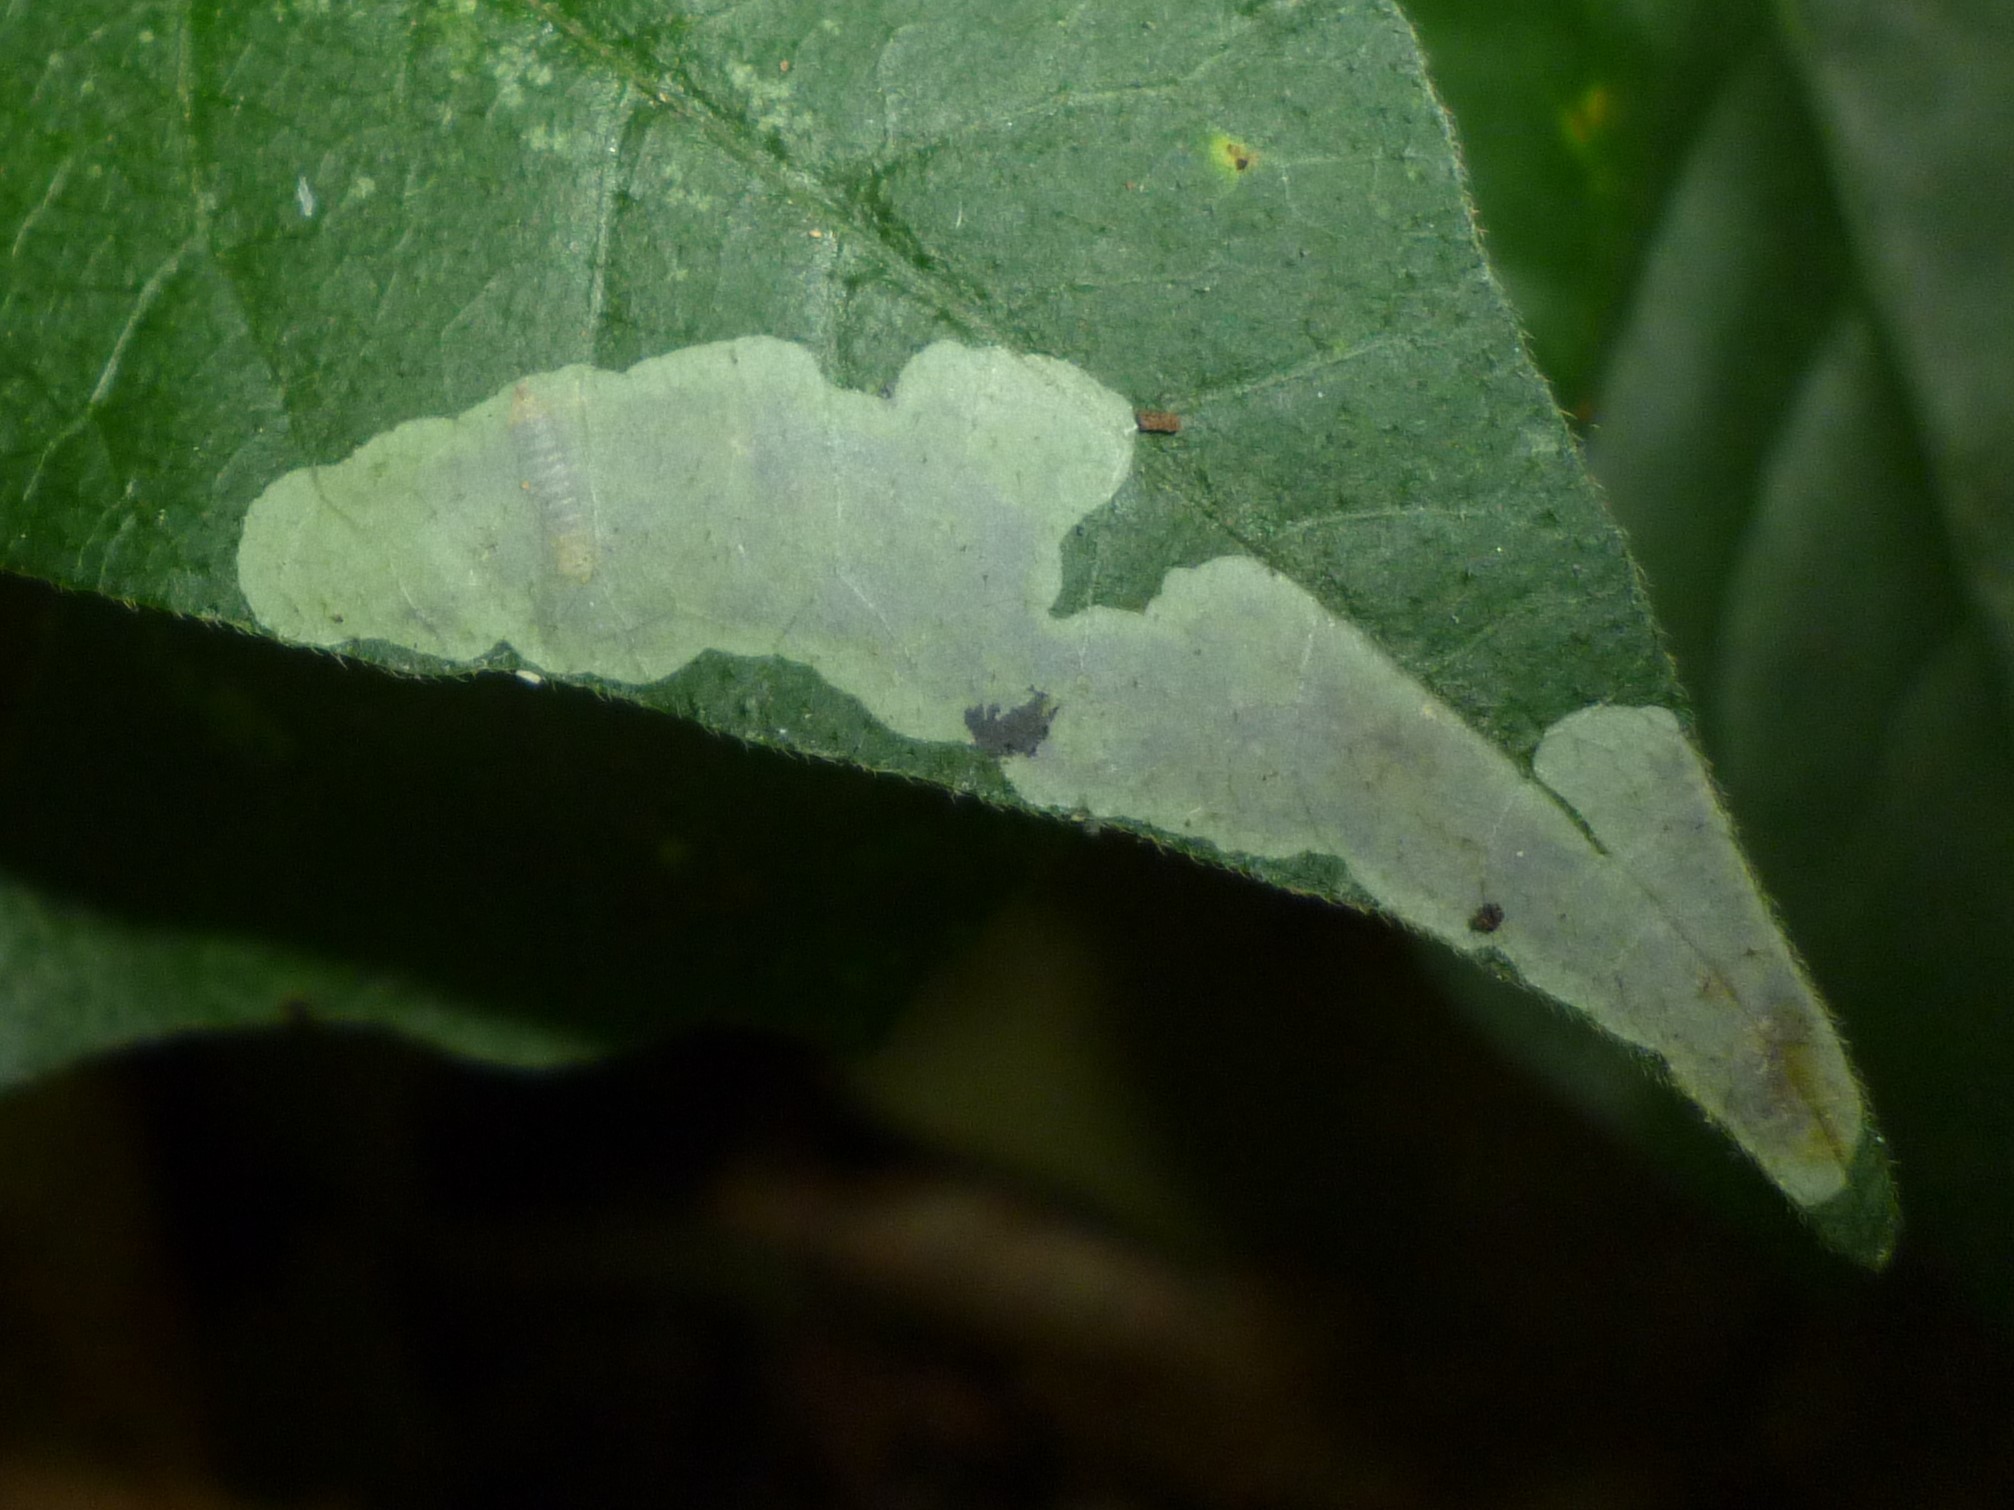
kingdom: Animalia
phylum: Arthropoda
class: Insecta
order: Lepidoptera
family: Gracillariidae
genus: Cameraria
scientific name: Cameraria guttifinitella
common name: Poison ivy leaf-miner moth
